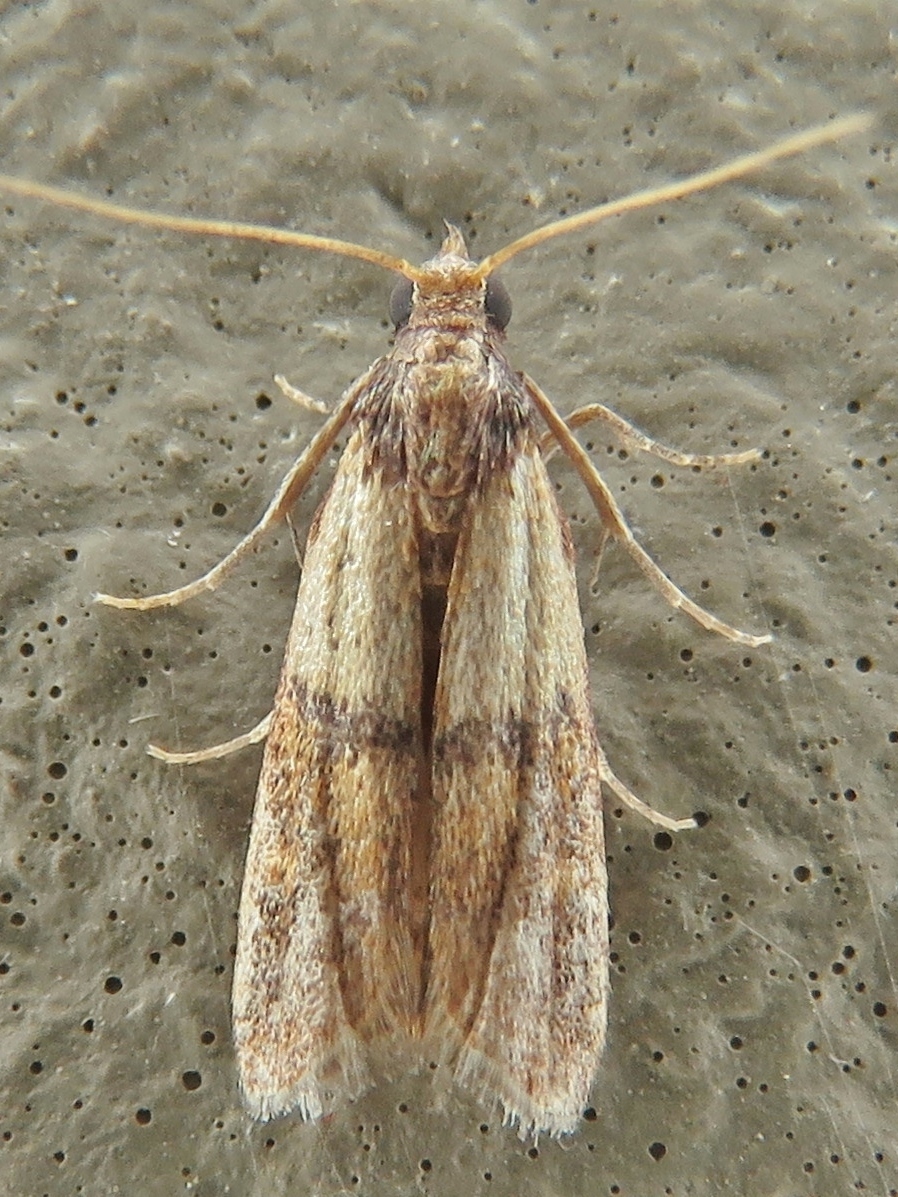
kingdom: Animalia
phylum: Arthropoda
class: Insecta
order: Lepidoptera
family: Pyralidae
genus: Plodia
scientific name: Plodia interpunctella
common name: Indian meal moth
